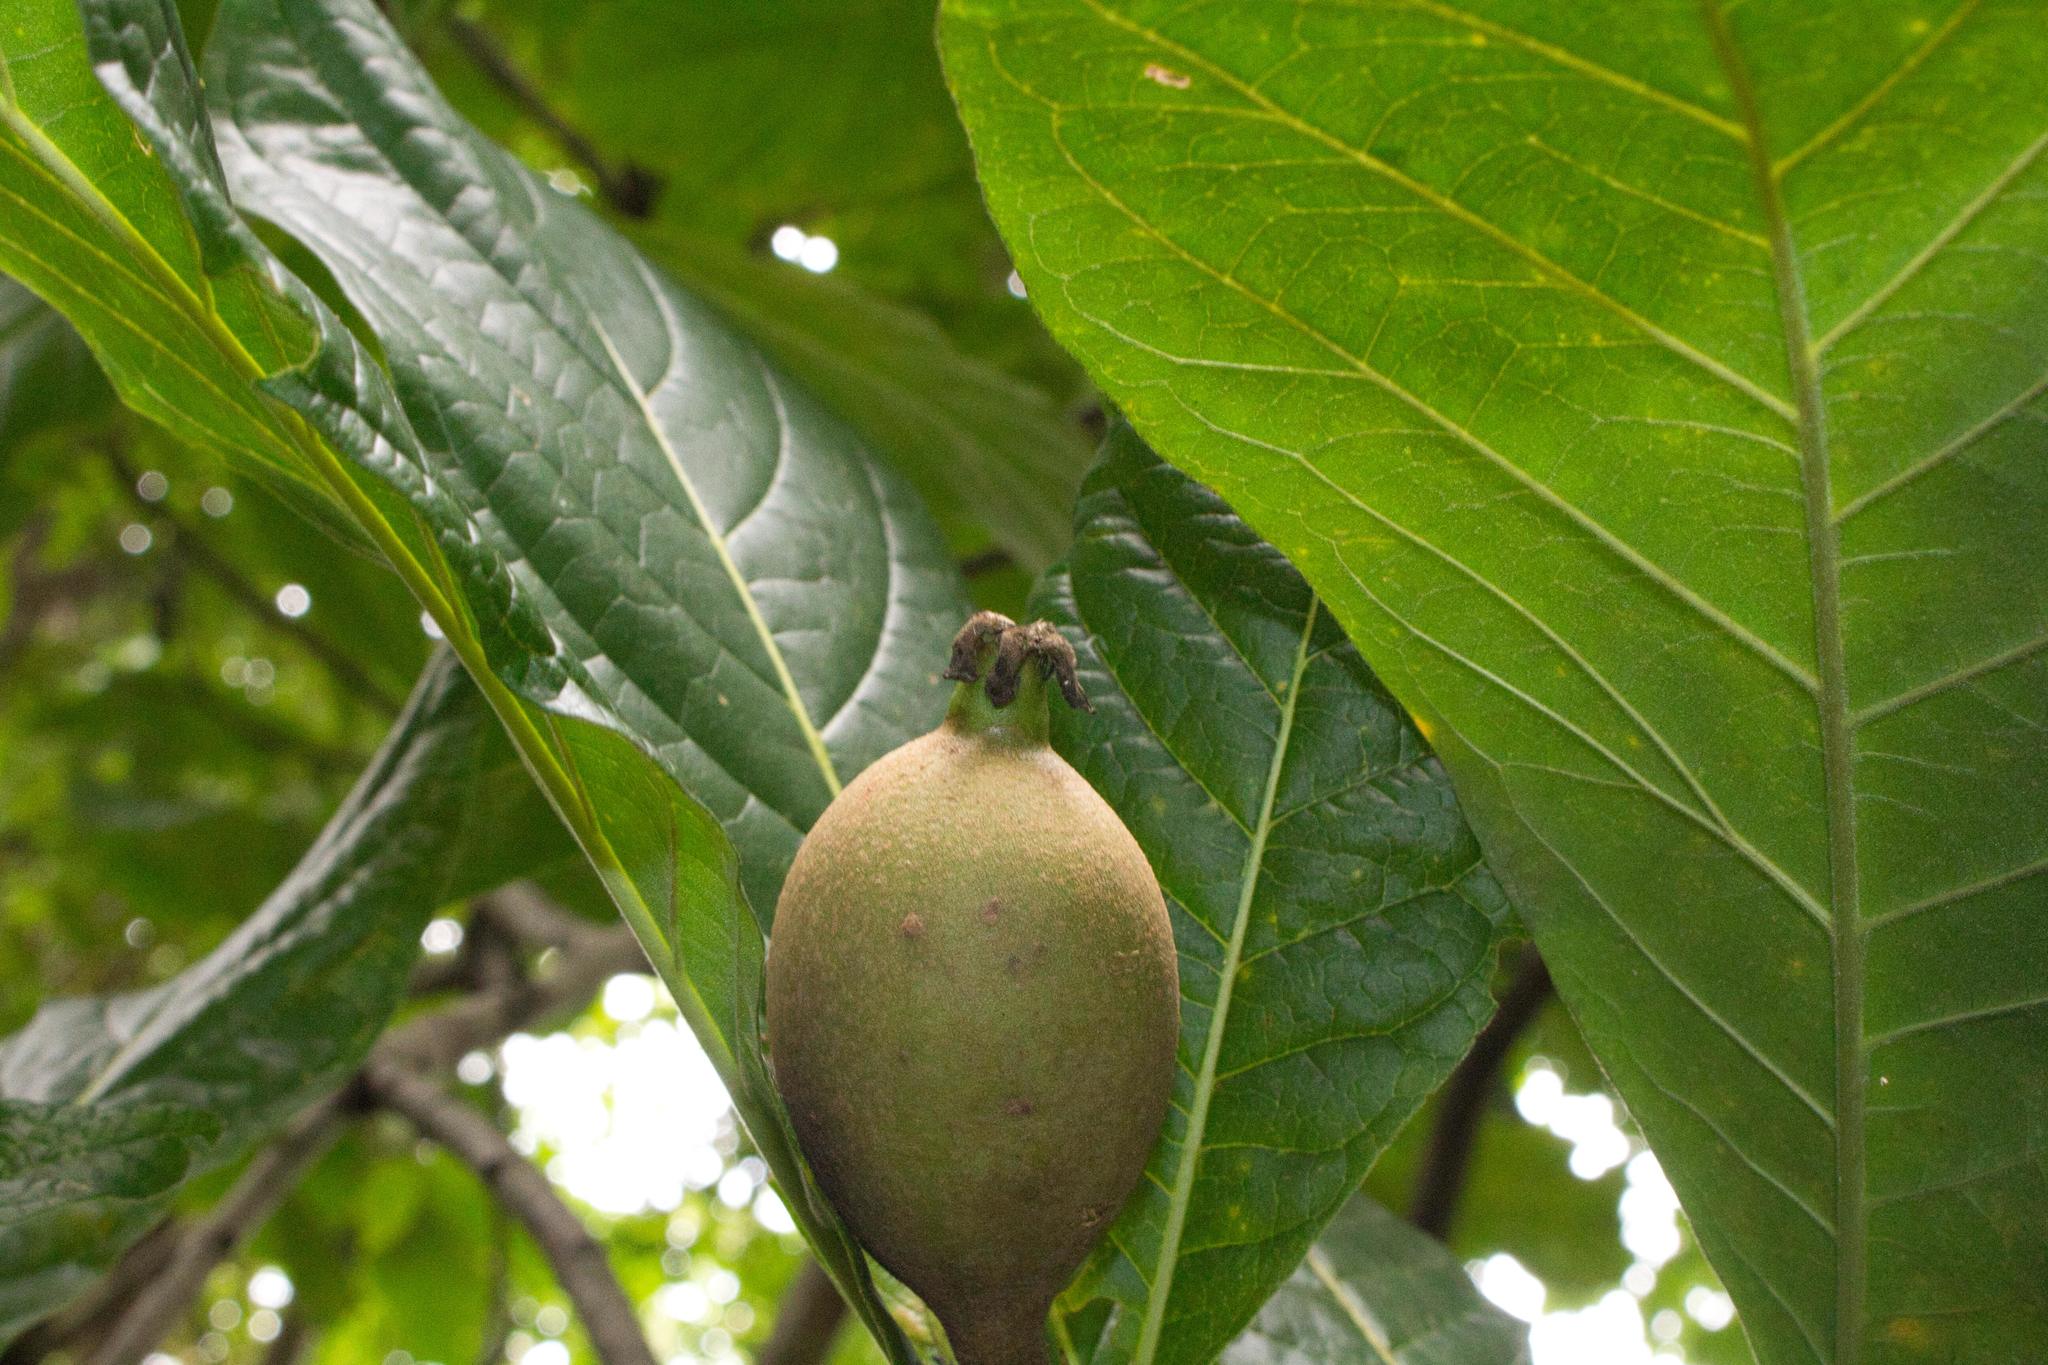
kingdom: Plantae
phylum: Tracheophyta
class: Magnoliopsida
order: Gentianales
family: Rubiaceae
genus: Genipa
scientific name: Genipa americana
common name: Genipap
